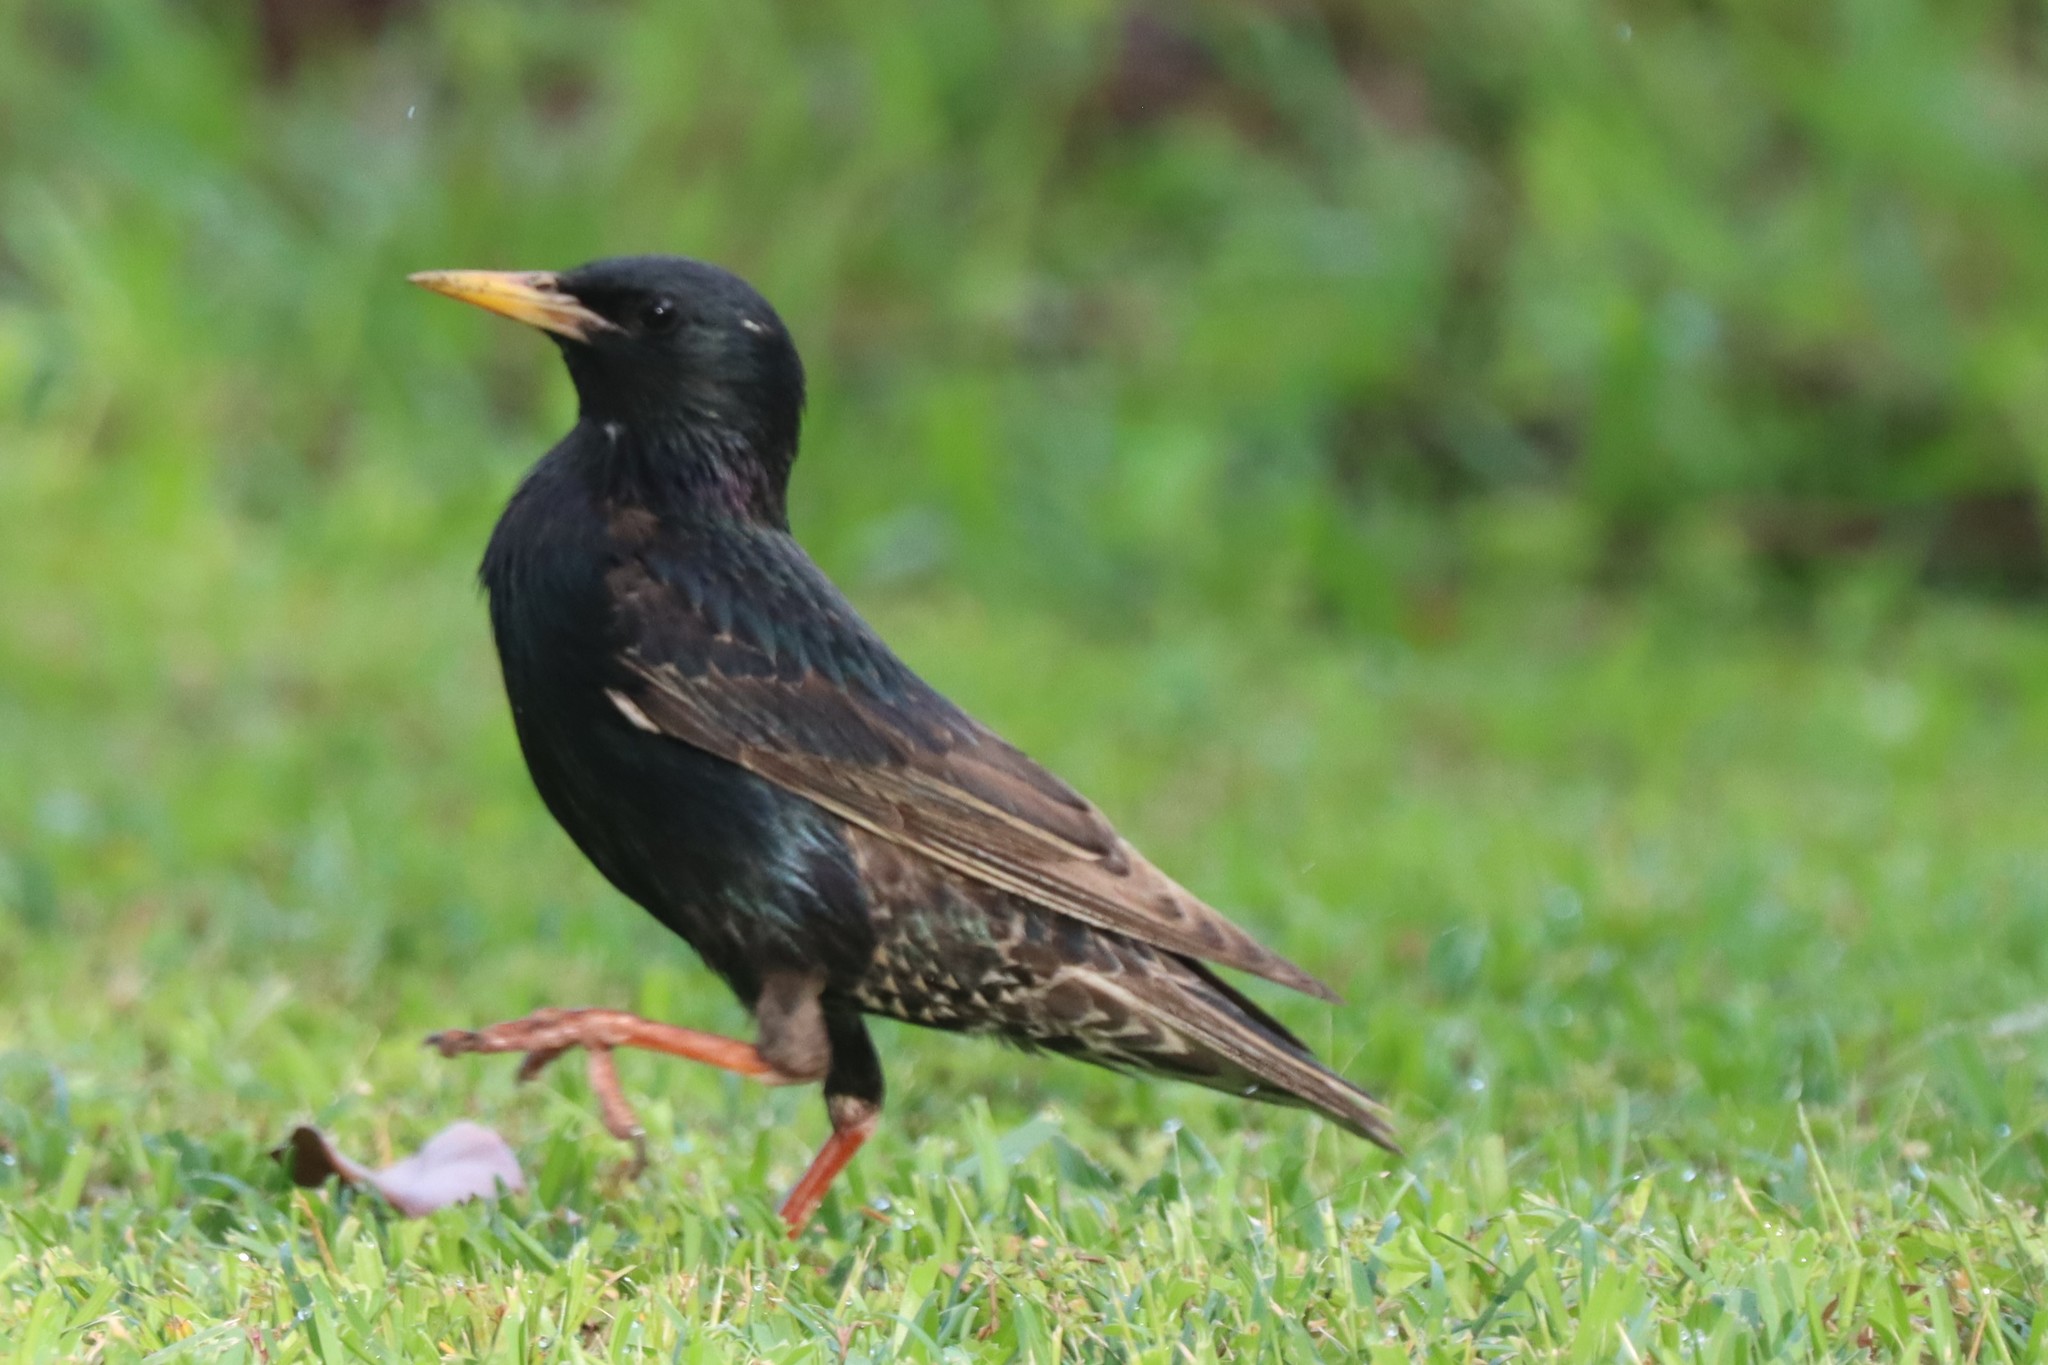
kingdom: Animalia
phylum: Chordata
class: Aves
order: Passeriformes
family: Sturnidae
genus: Sturnus
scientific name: Sturnus vulgaris
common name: Common starling
